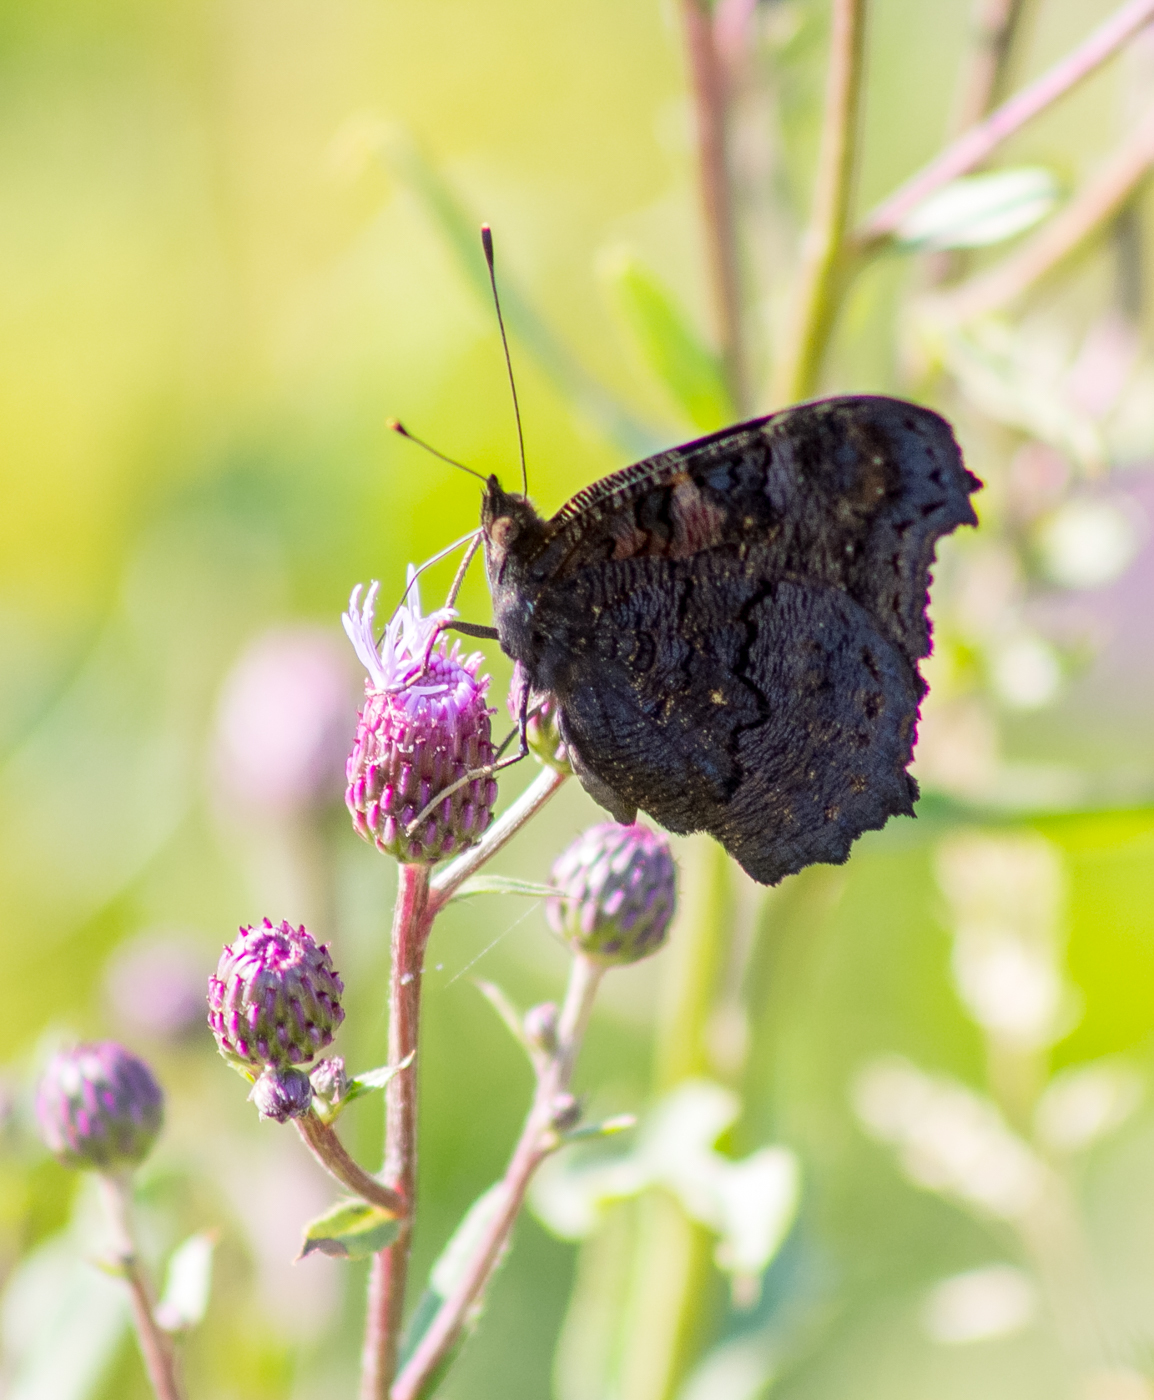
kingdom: Animalia
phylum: Arthropoda
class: Insecta
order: Lepidoptera
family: Nymphalidae
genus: Aglais
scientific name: Aglais io
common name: Peacock
